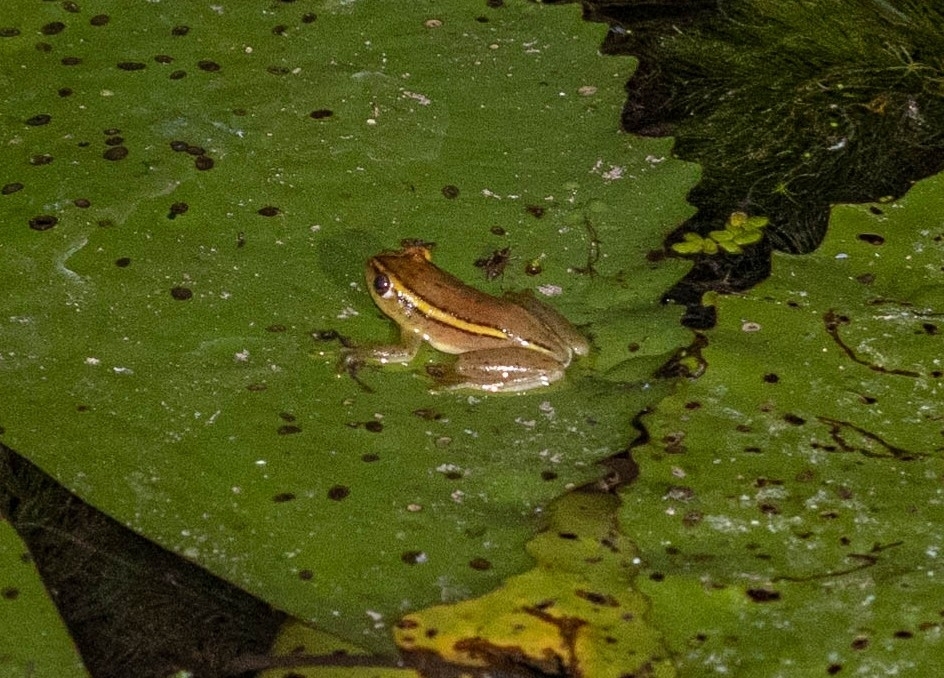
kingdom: Animalia
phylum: Chordata
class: Amphibia
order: Anura
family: Hyperoliidae
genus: Hyperolius
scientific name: Hyperolius argus
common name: Argus reed frog
